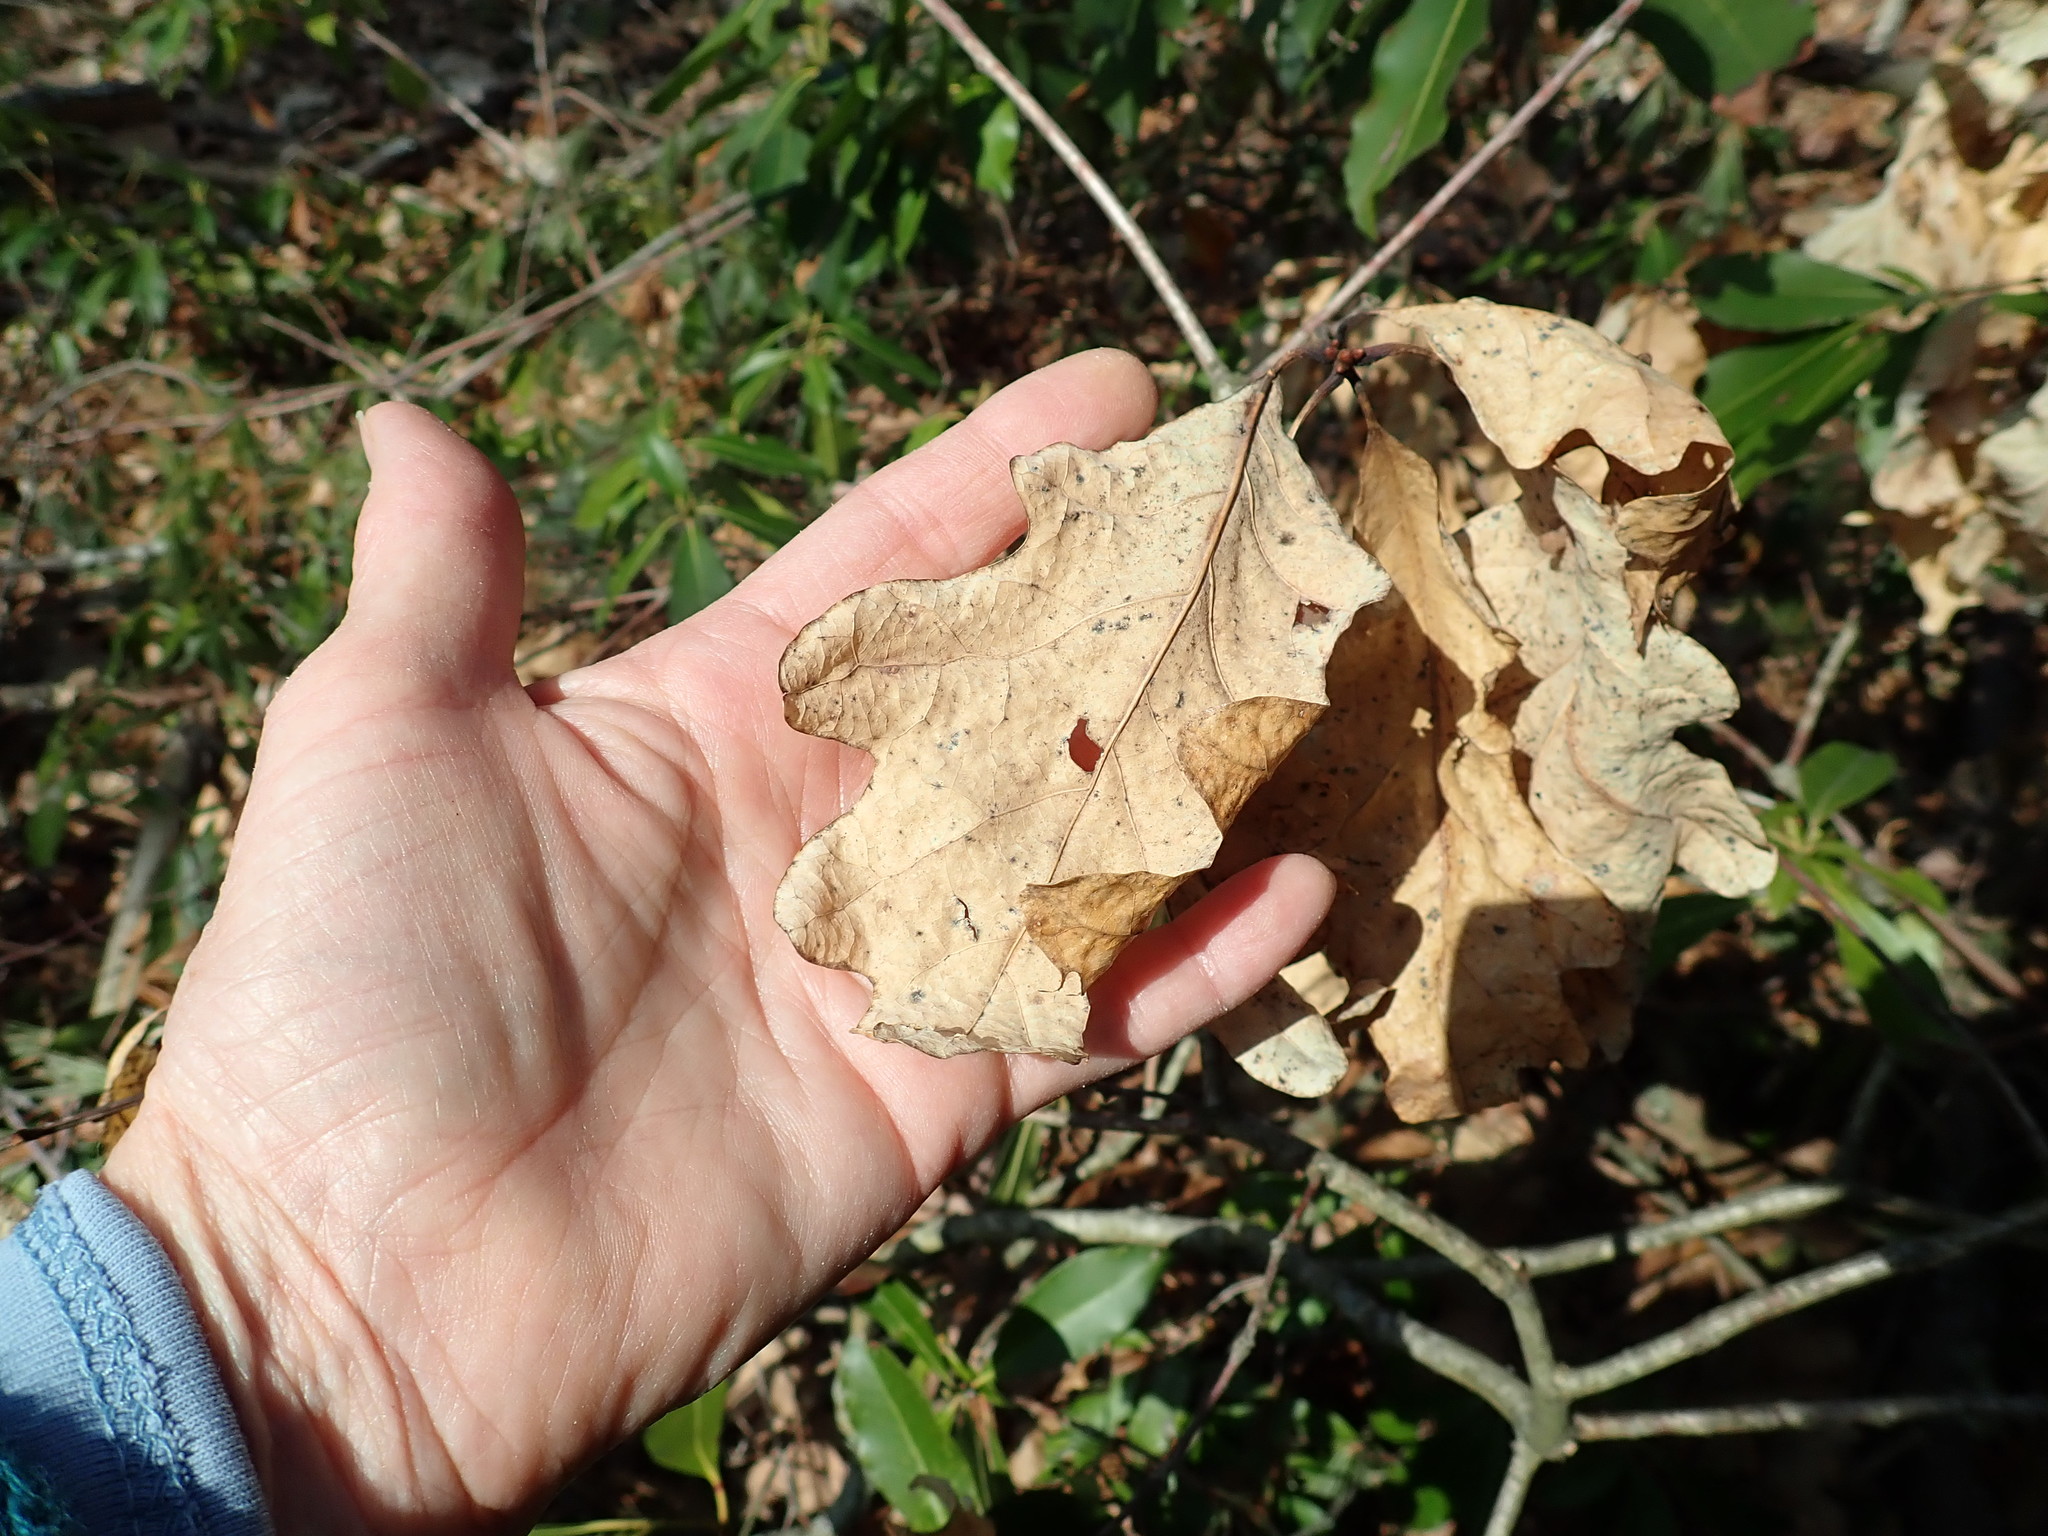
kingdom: Plantae
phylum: Tracheophyta
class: Magnoliopsida
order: Fagales
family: Fagaceae
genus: Quercus
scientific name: Quercus alba
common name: White oak
